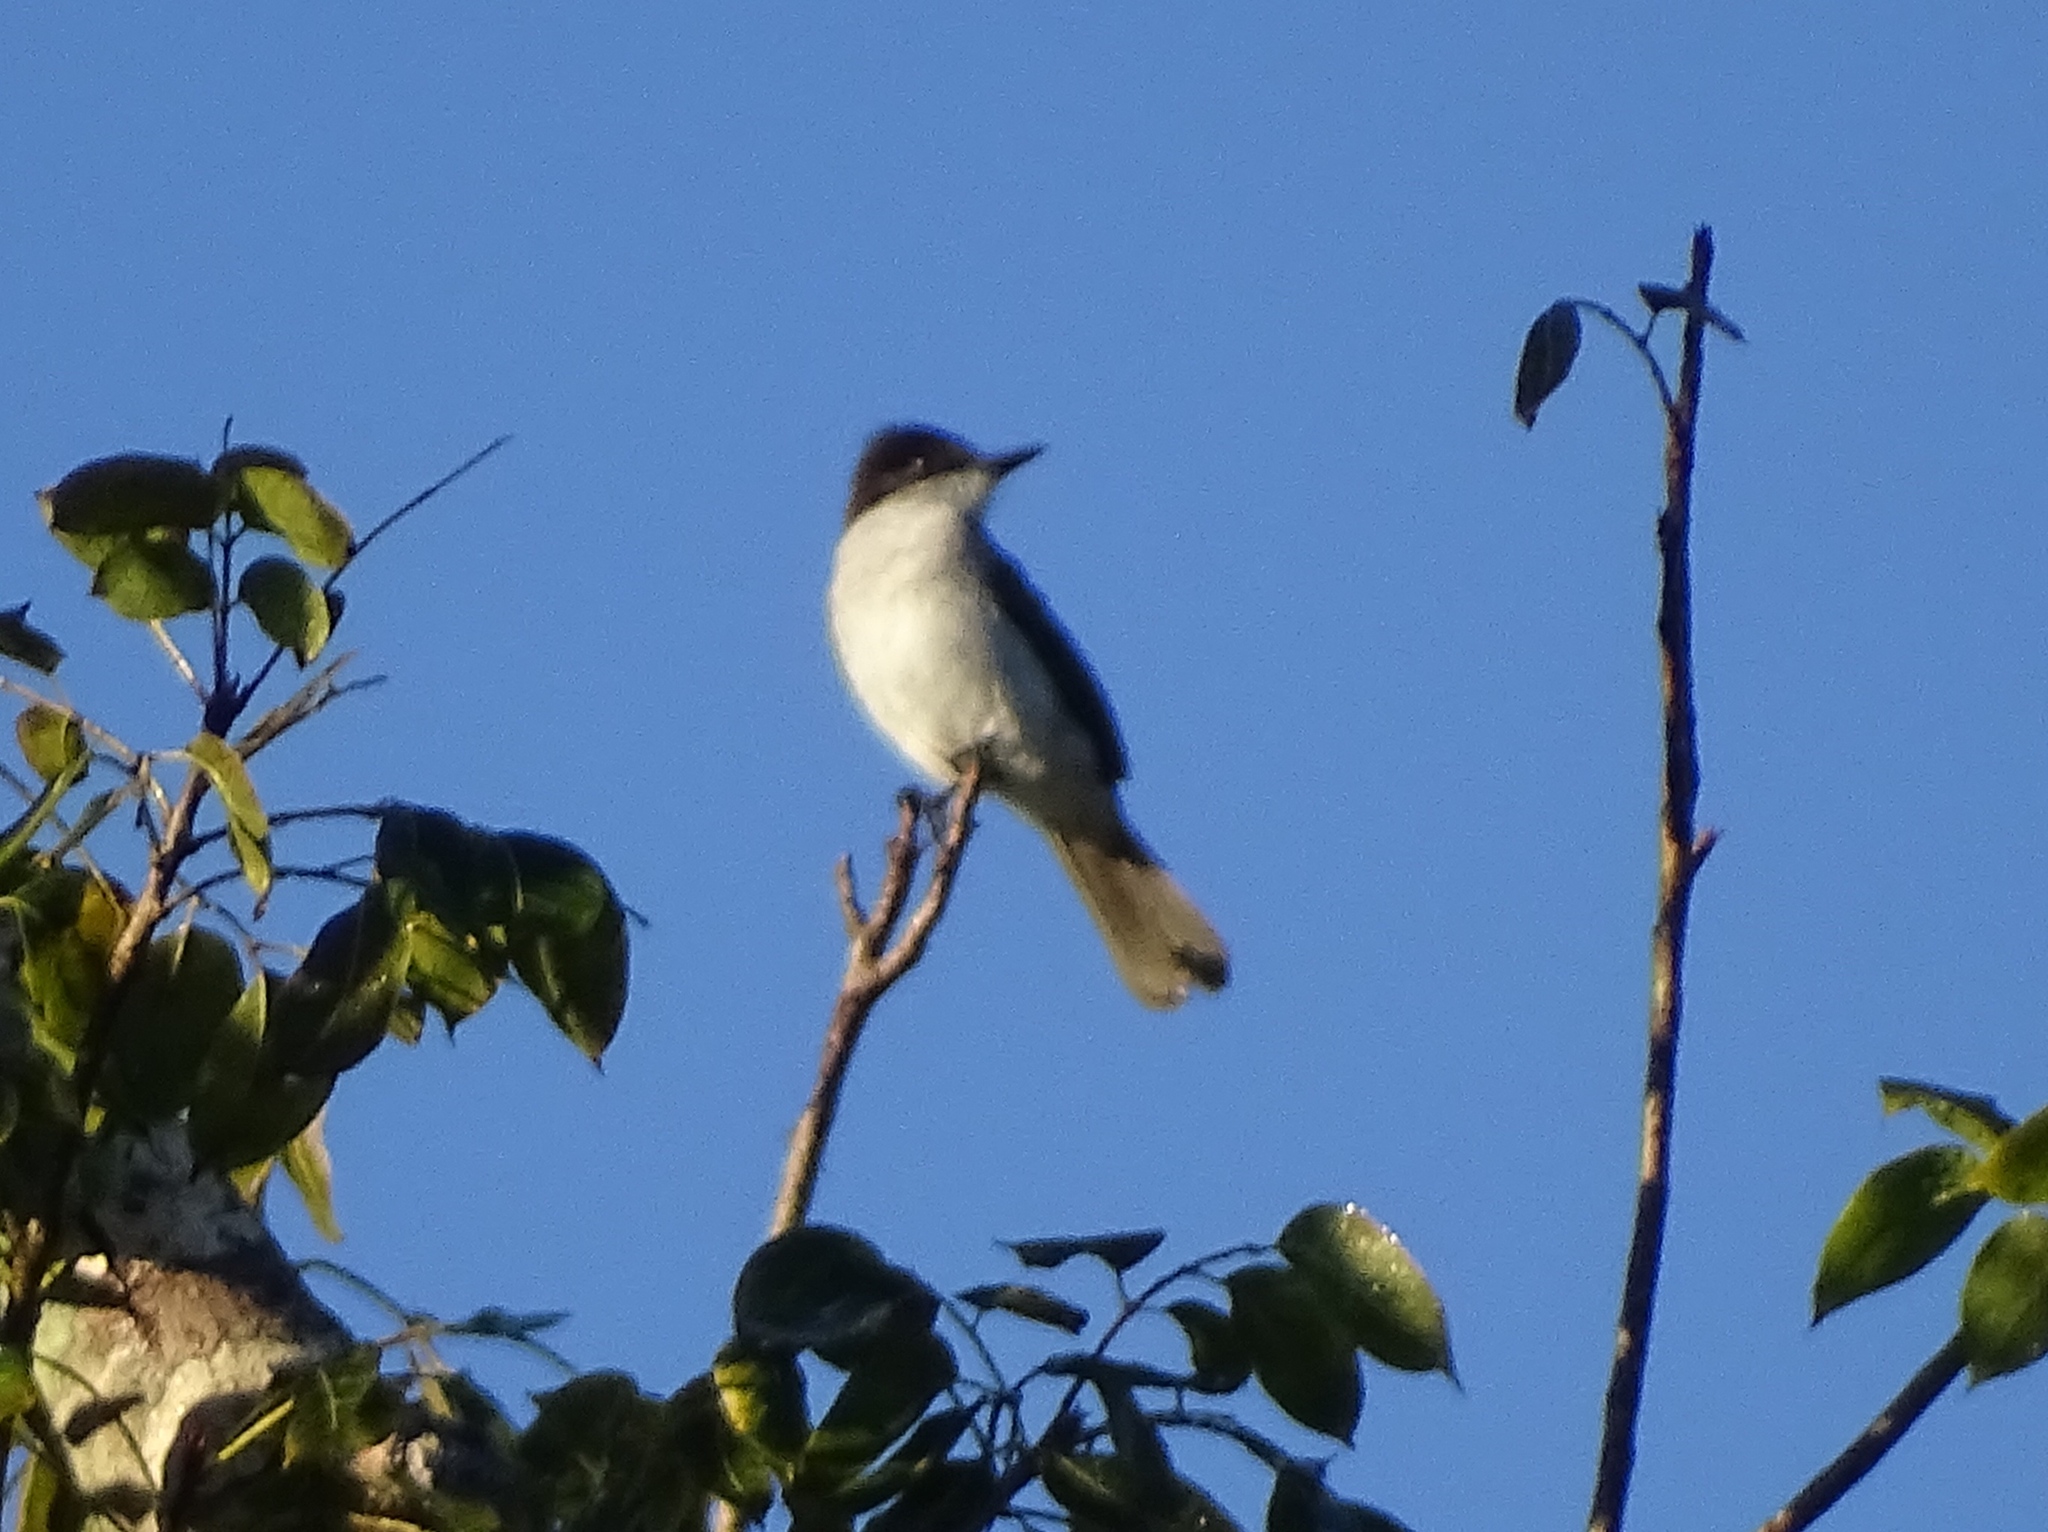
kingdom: Animalia
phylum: Chordata
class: Aves
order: Passeriformes
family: Tyrannidae
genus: Tyrannus
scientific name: Tyrannus caudifasciatus
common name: Loggerhead kingbird
